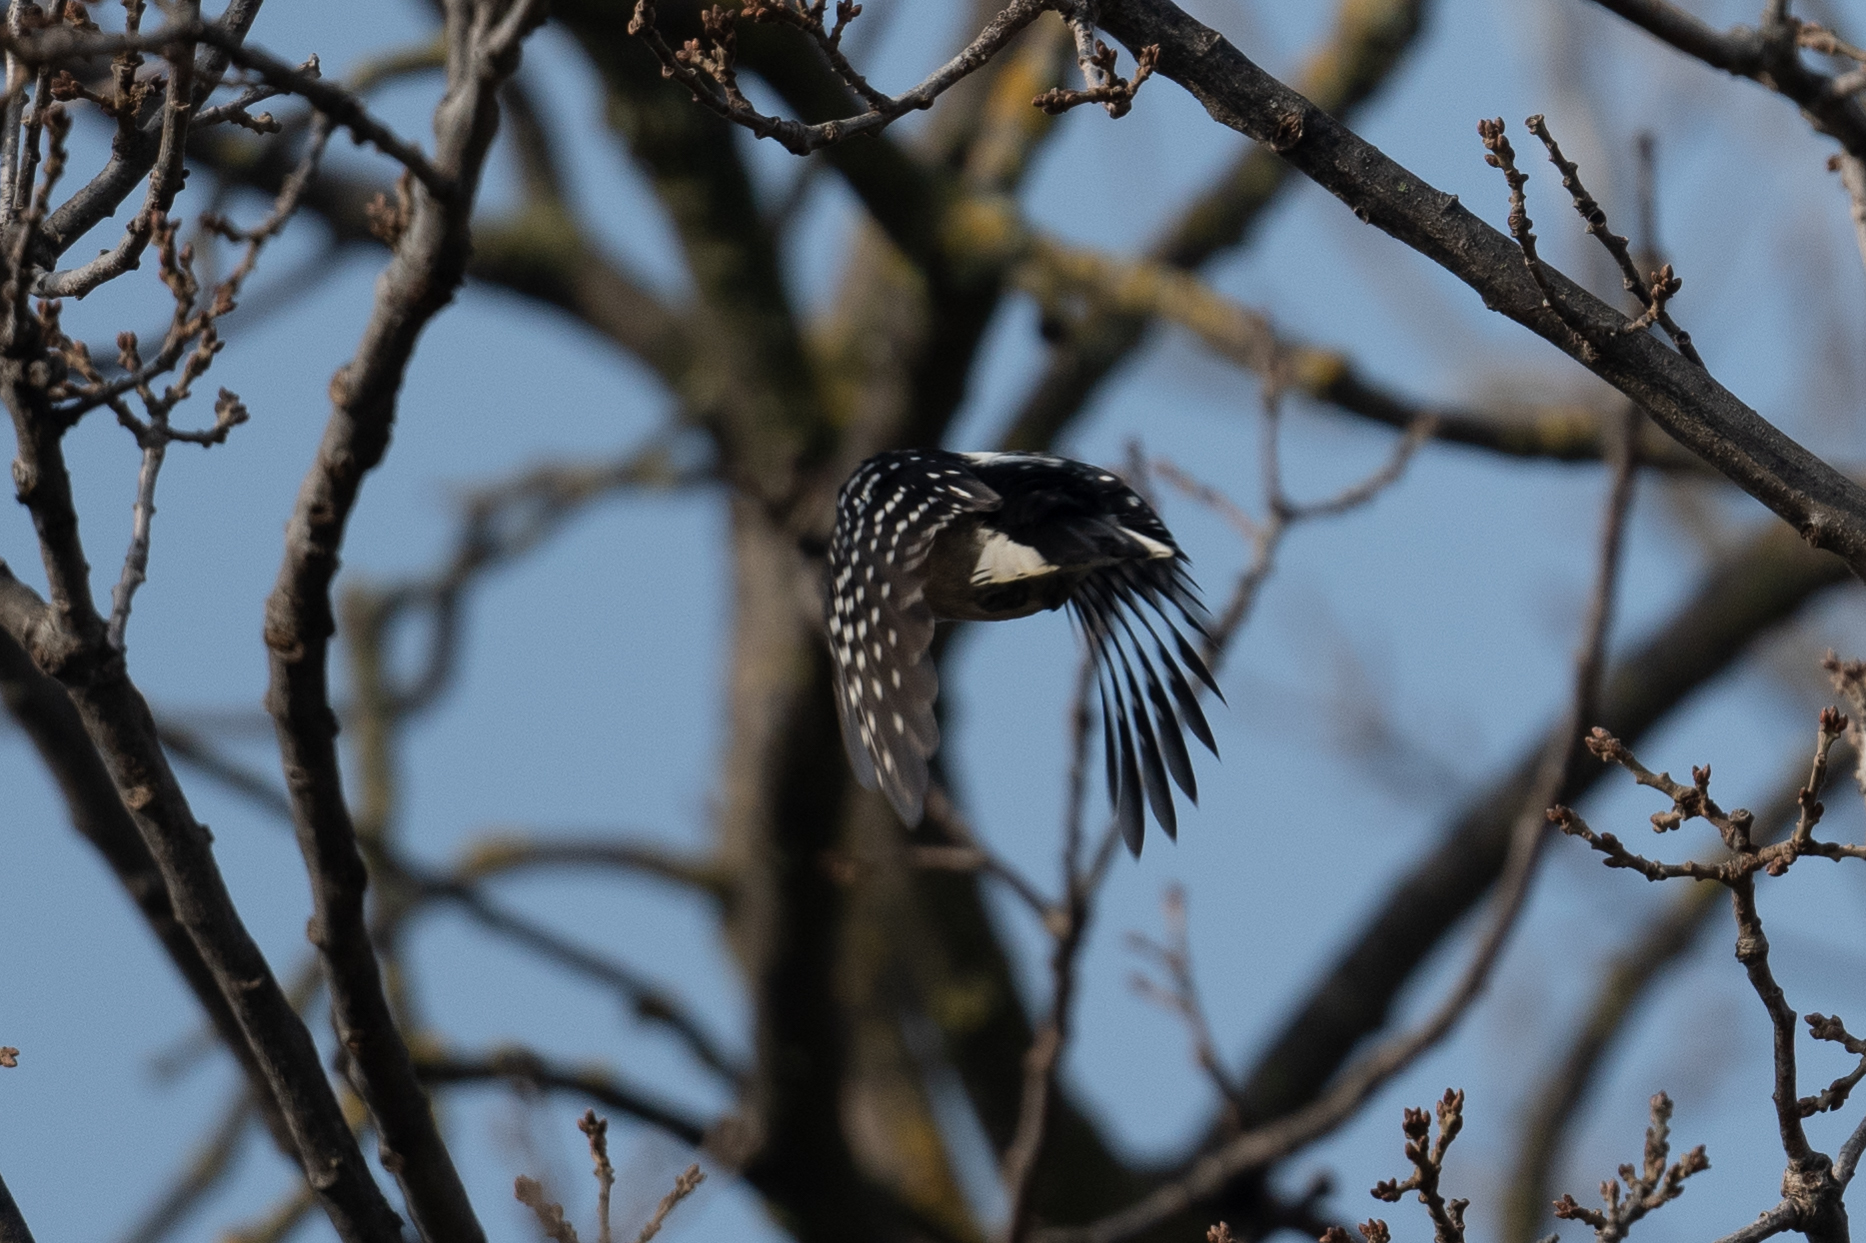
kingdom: Animalia
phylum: Chordata
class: Aves
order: Piciformes
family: Picidae
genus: Dryobates
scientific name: Dryobates pubescens
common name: Downy woodpecker
